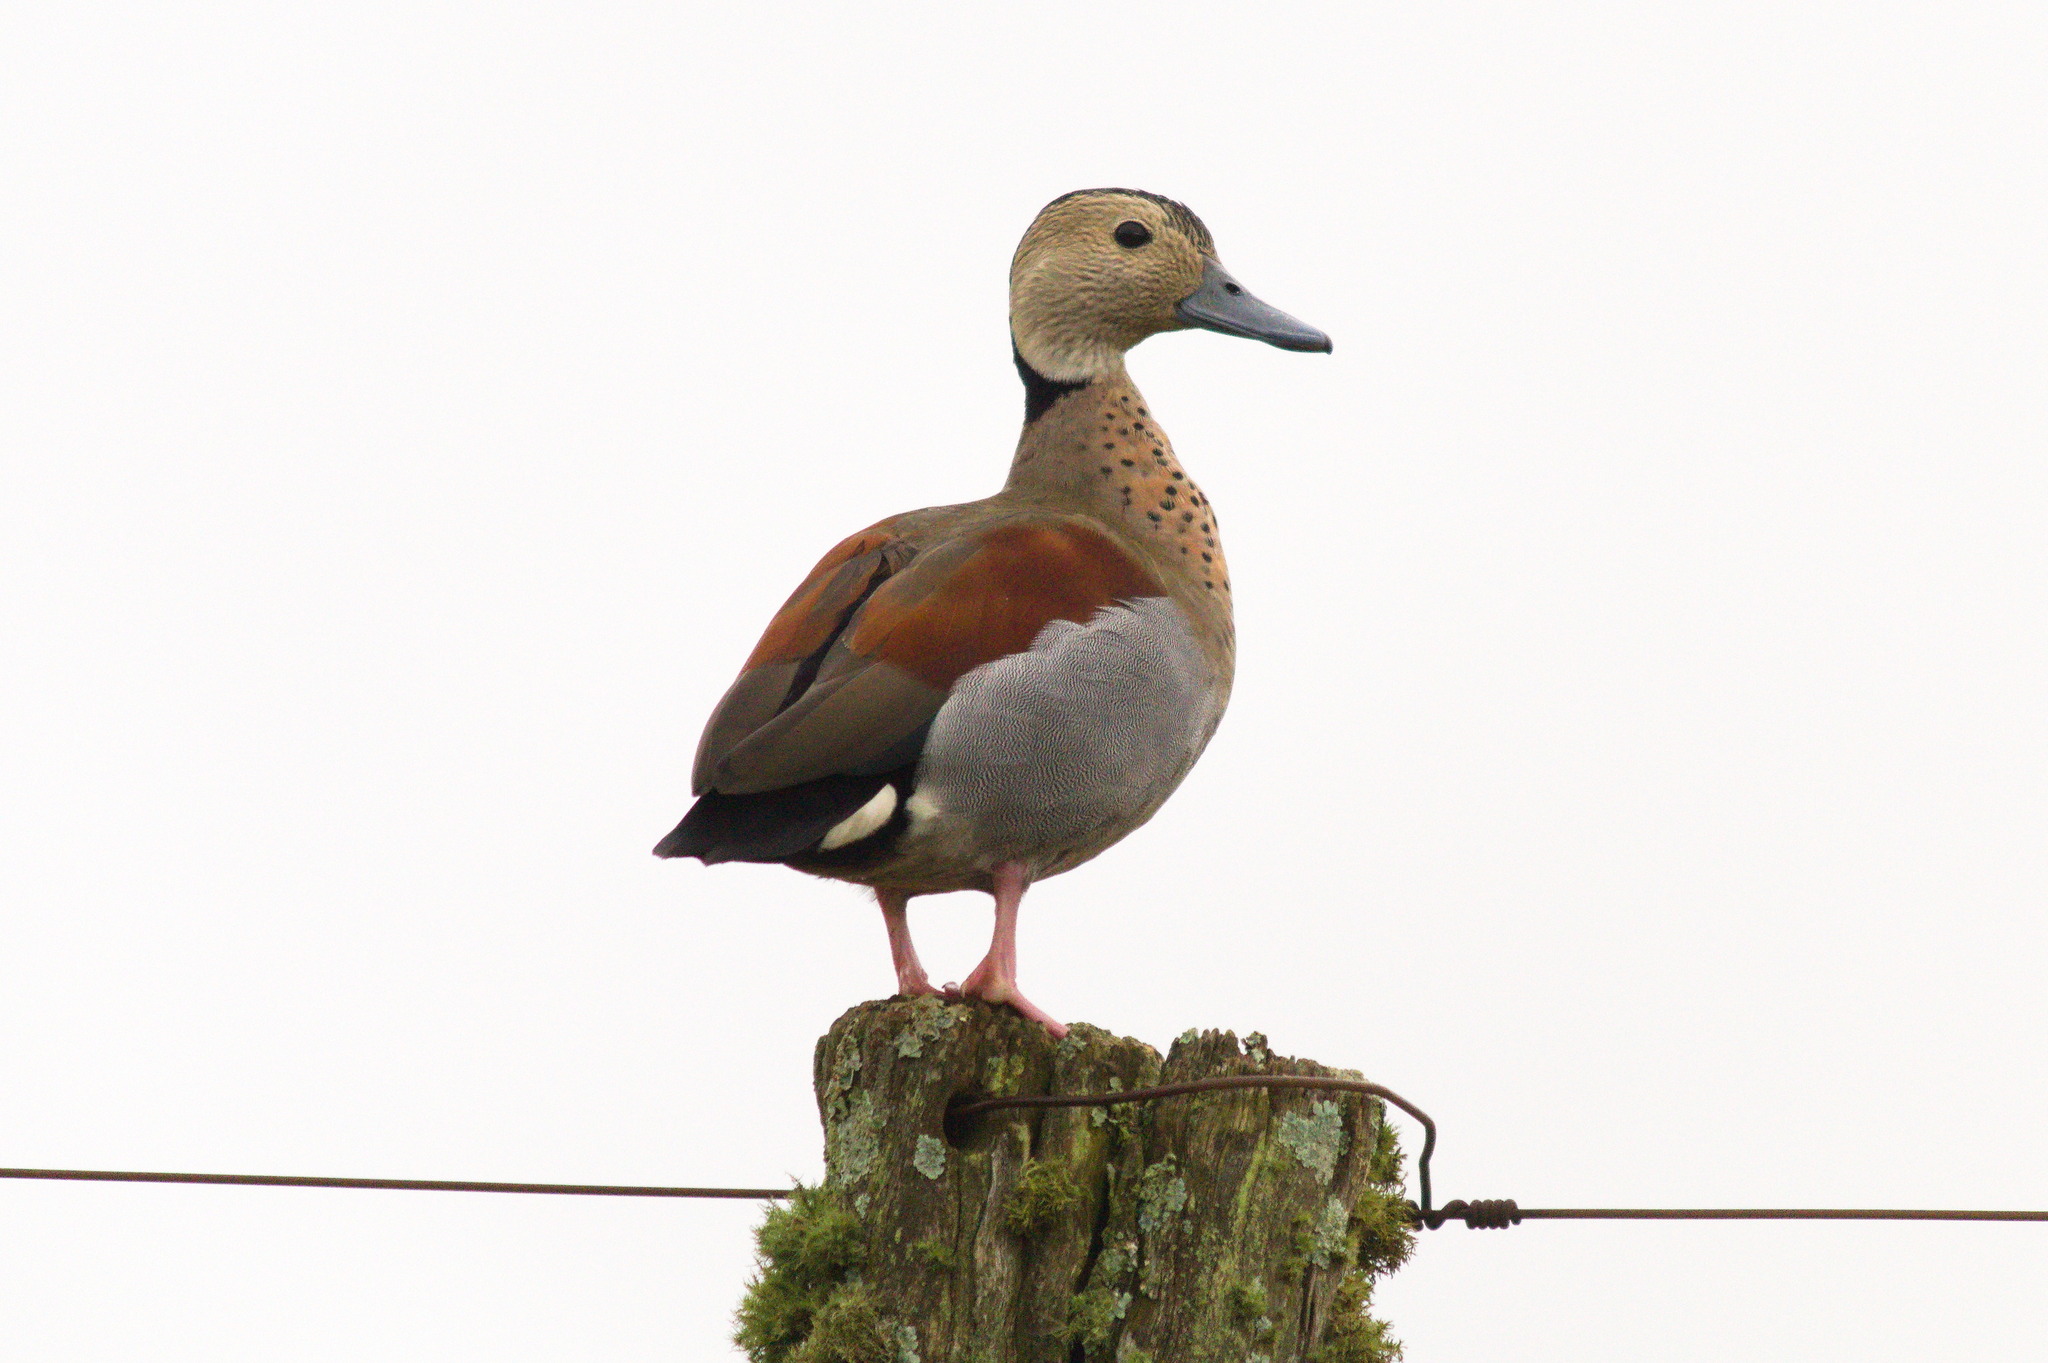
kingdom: Animalia
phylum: Chordata
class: Aves
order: Anseriformes
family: Anatidae
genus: Callonetta
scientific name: Callonetta leucophrys
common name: Ringed teal
